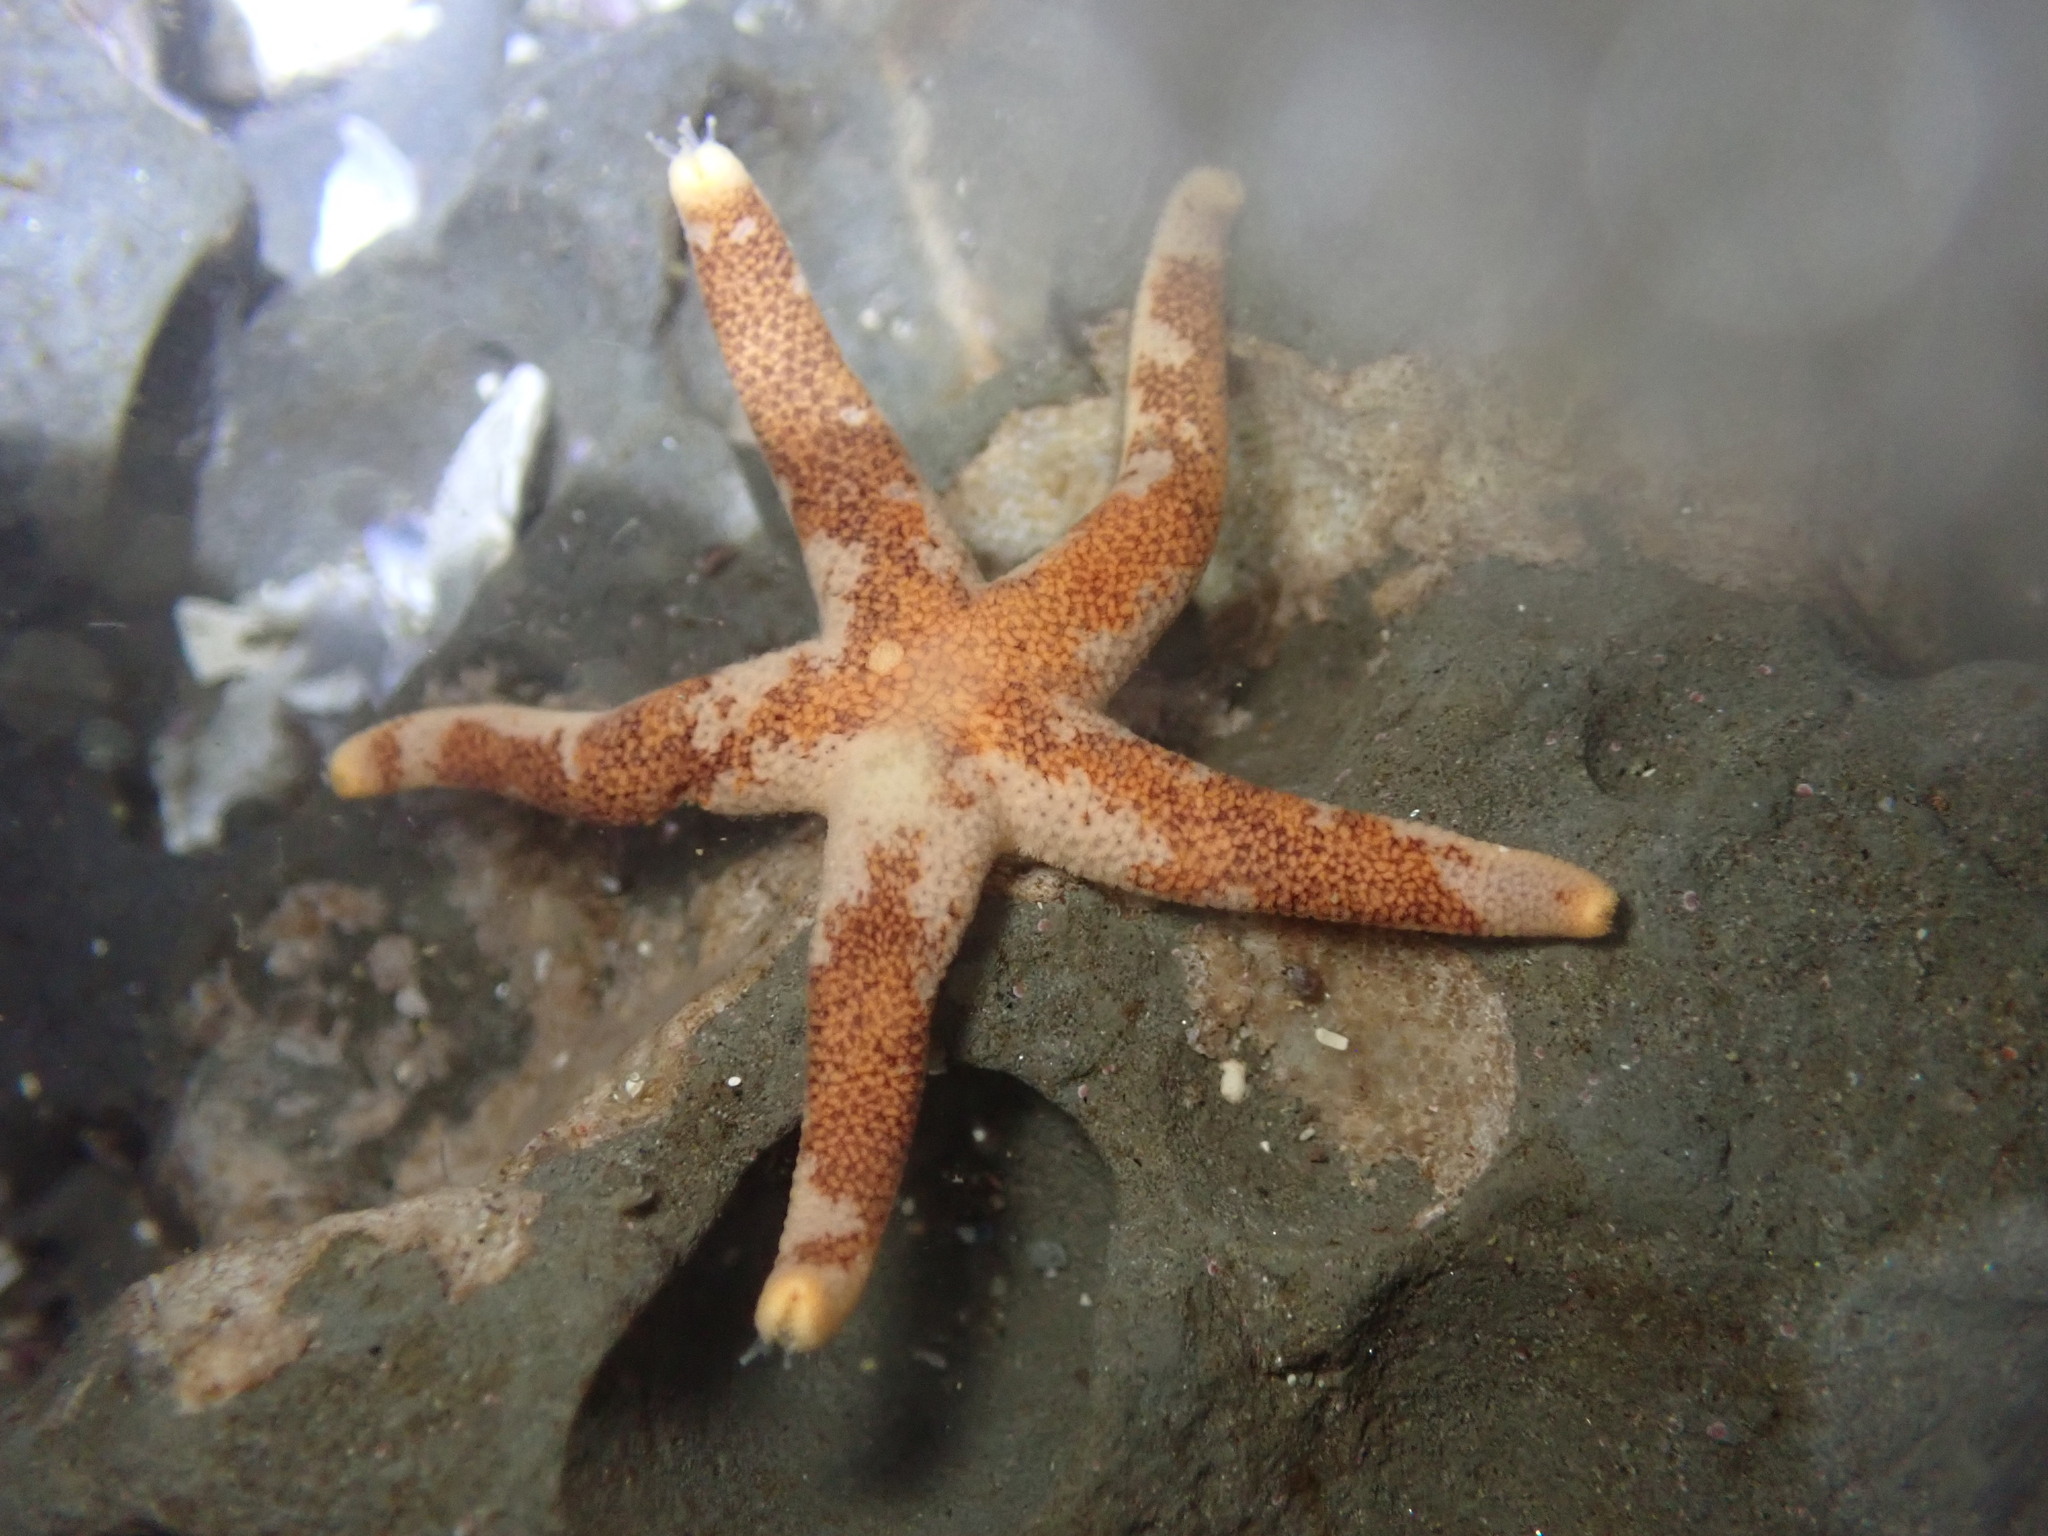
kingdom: Animalia
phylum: Echinodermata
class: Asteroidea
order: Spinulosida
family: Echinasteridae
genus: Henricia
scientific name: Henricia pumila
